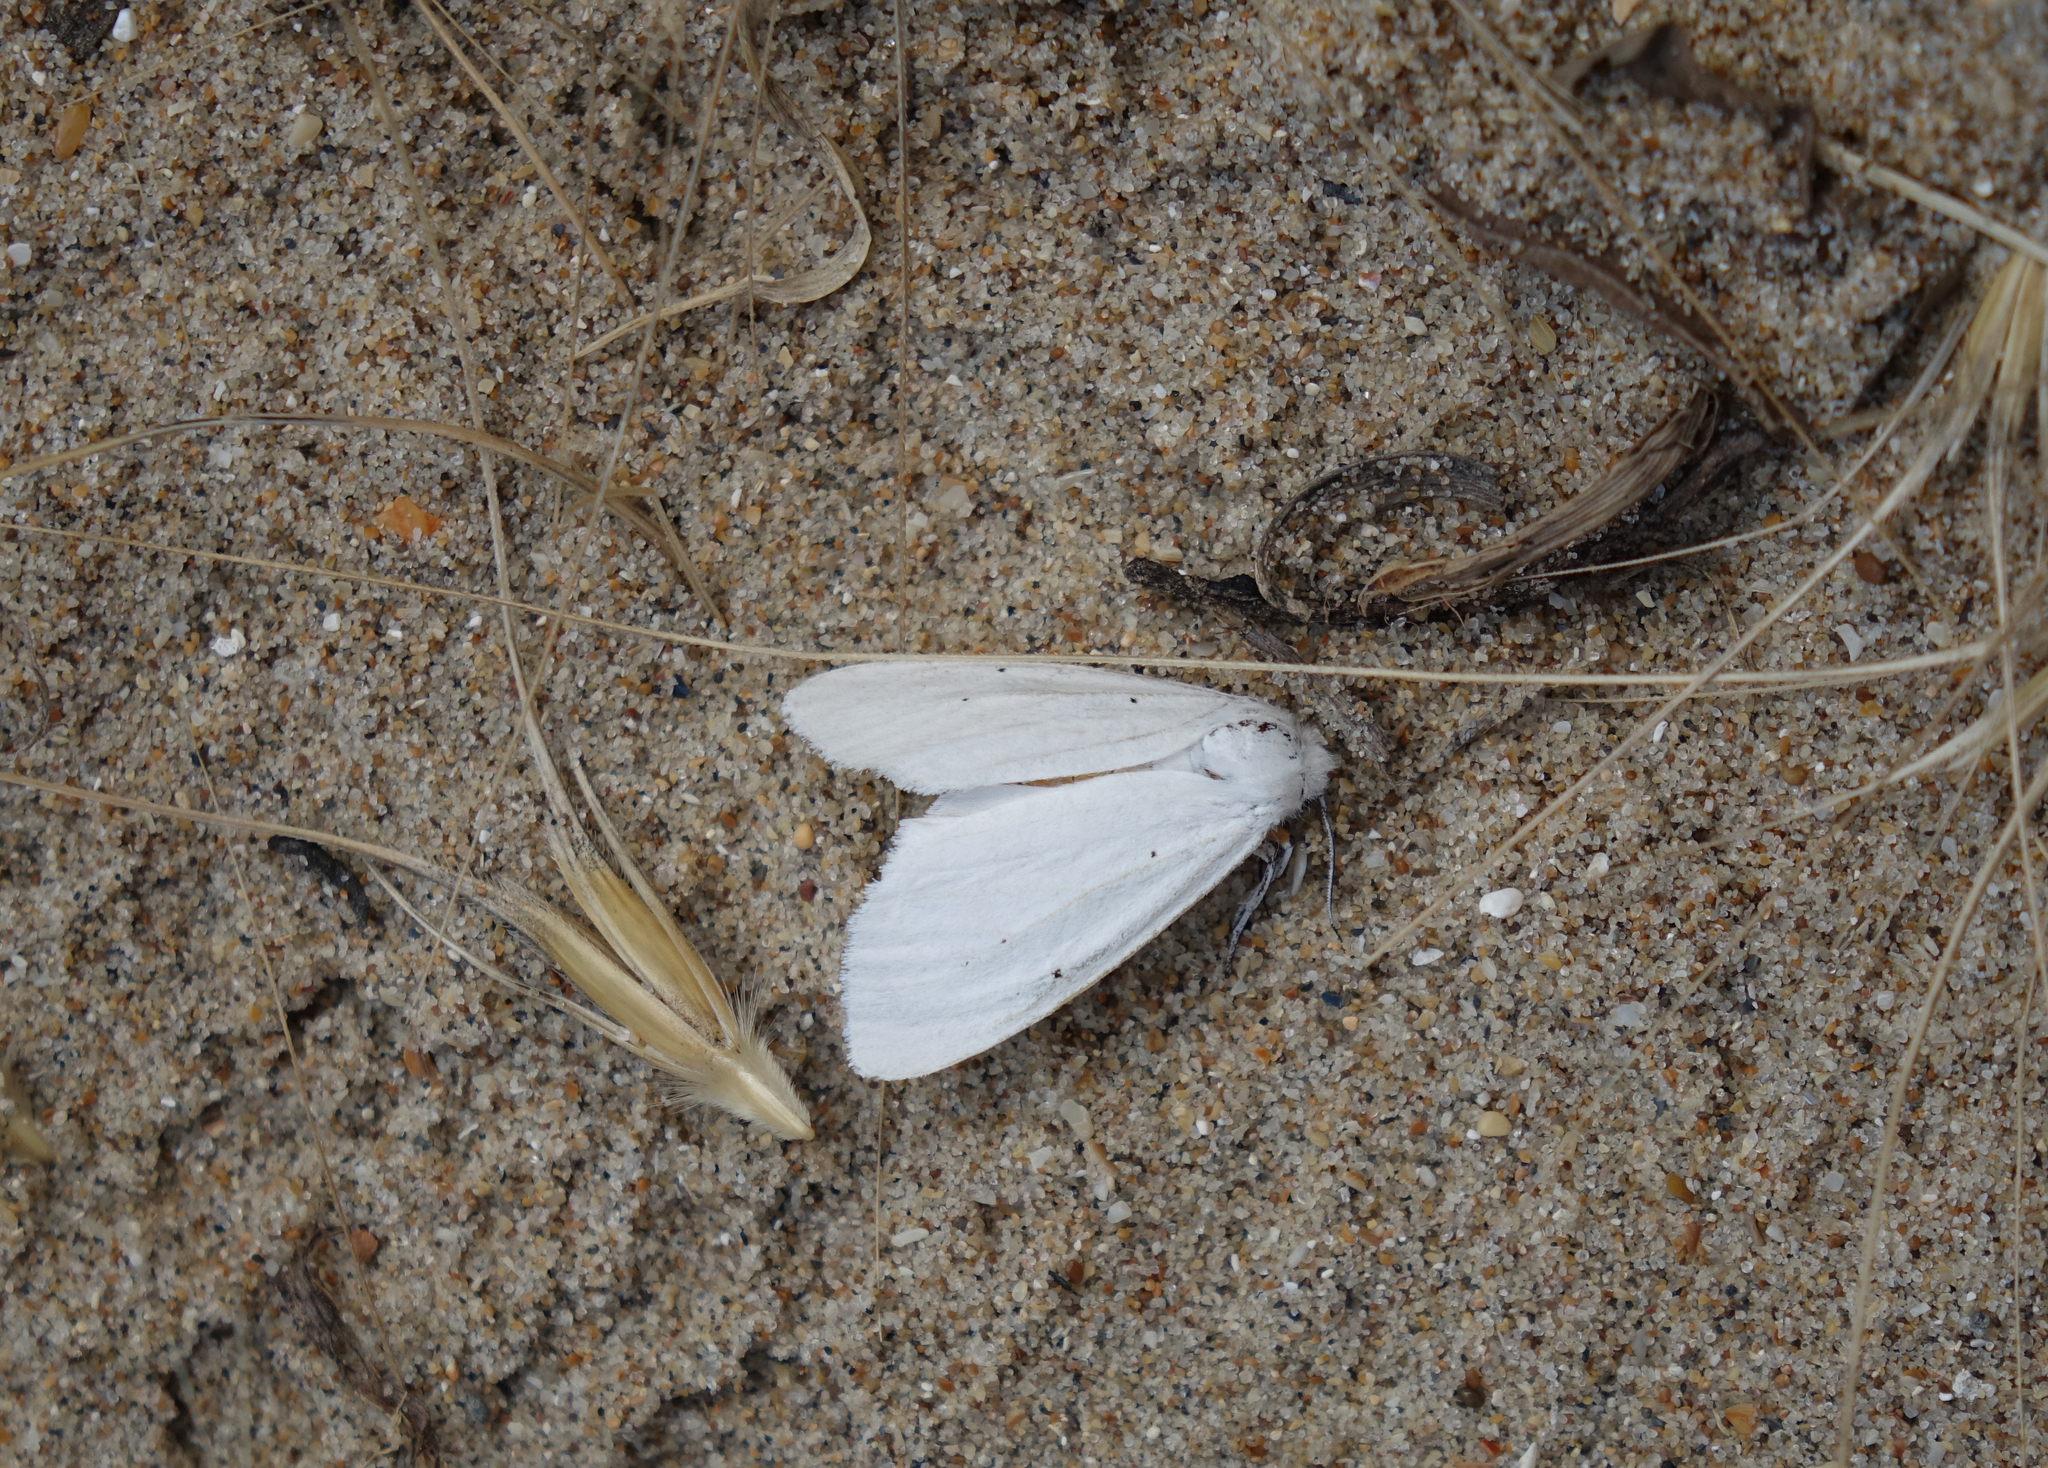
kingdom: Animalia
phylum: Arthropoda
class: Insecta
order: Lepidoptera
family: Erebidae
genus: Hyphantria
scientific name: Hyphantria cunea
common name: American white moth
